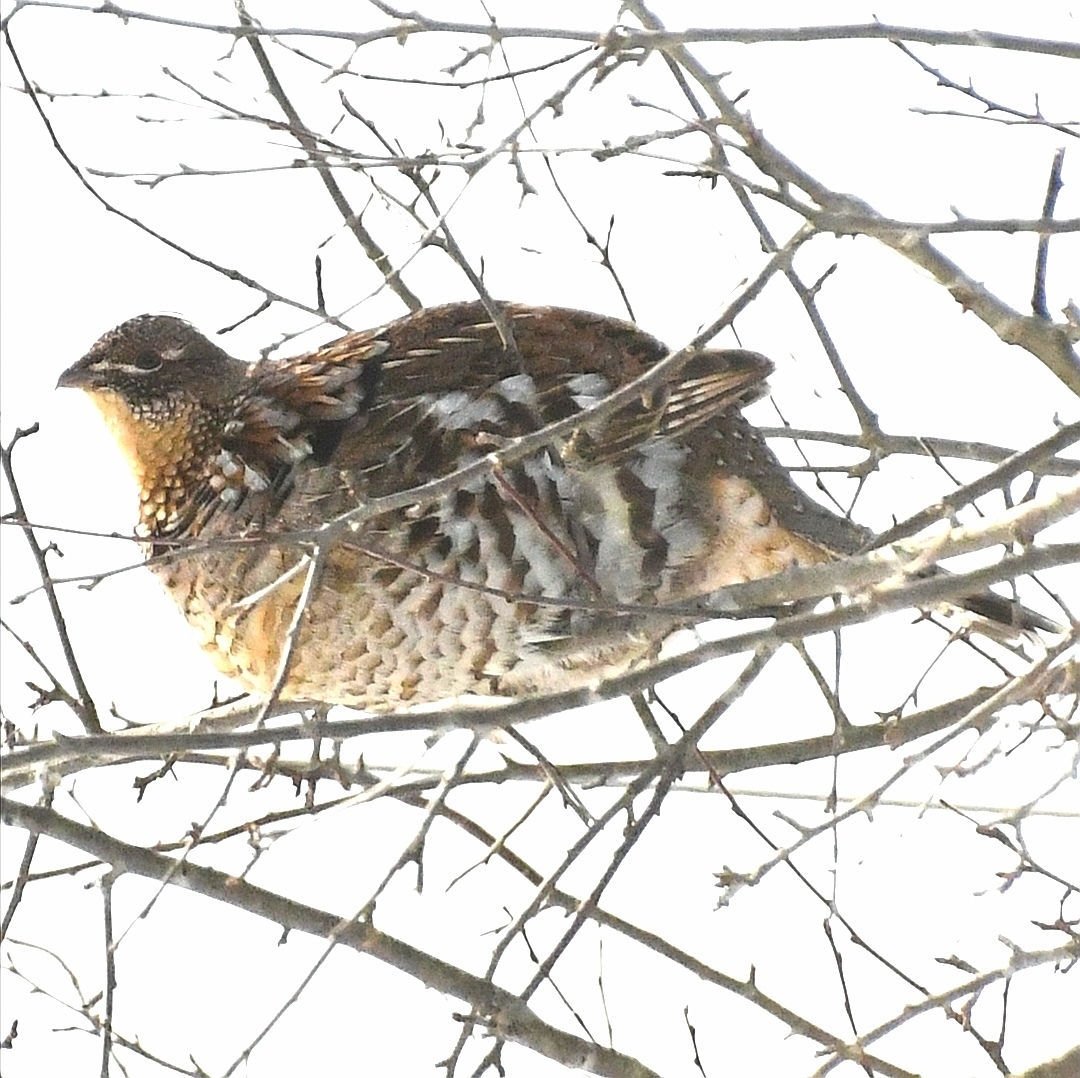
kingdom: Animalia
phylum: Chordata
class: Aves
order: Galliformes
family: Phasianidae
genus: Bonasa
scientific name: Bonasa umbellus
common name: Ruffed grouse
